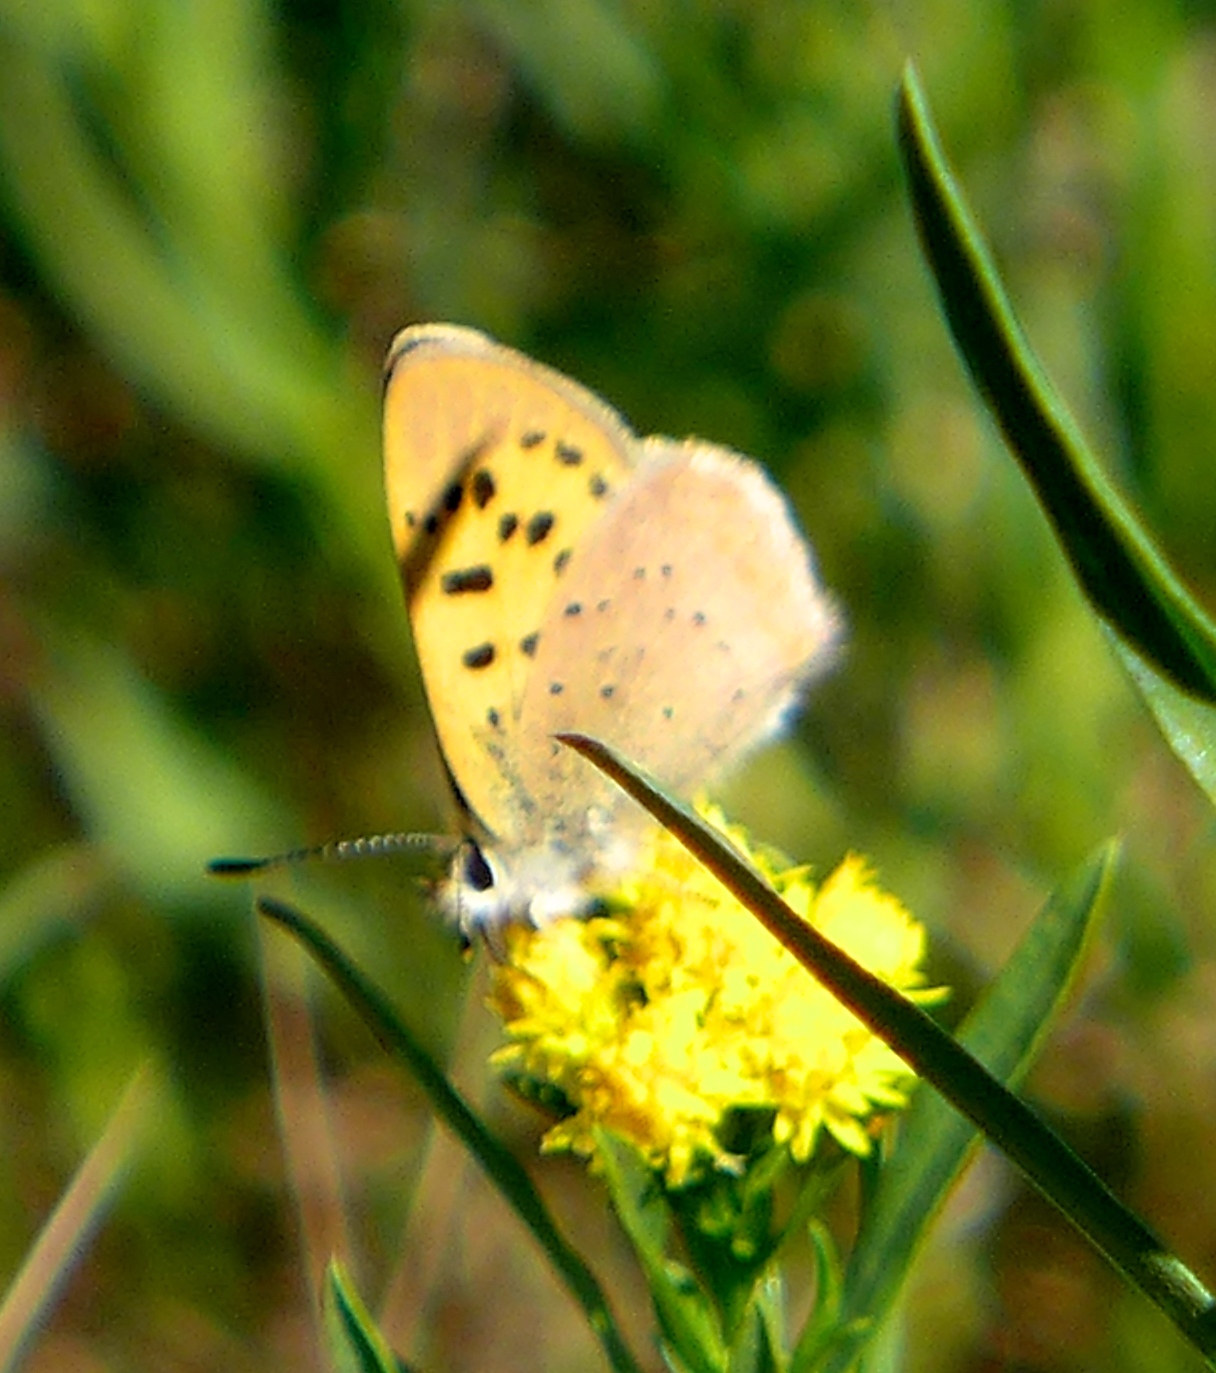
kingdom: Animalia
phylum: Arthropoda
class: Insecta
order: Lepidoptera
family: Lycaenidae
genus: Tharsalea
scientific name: Tharsalea helloides
